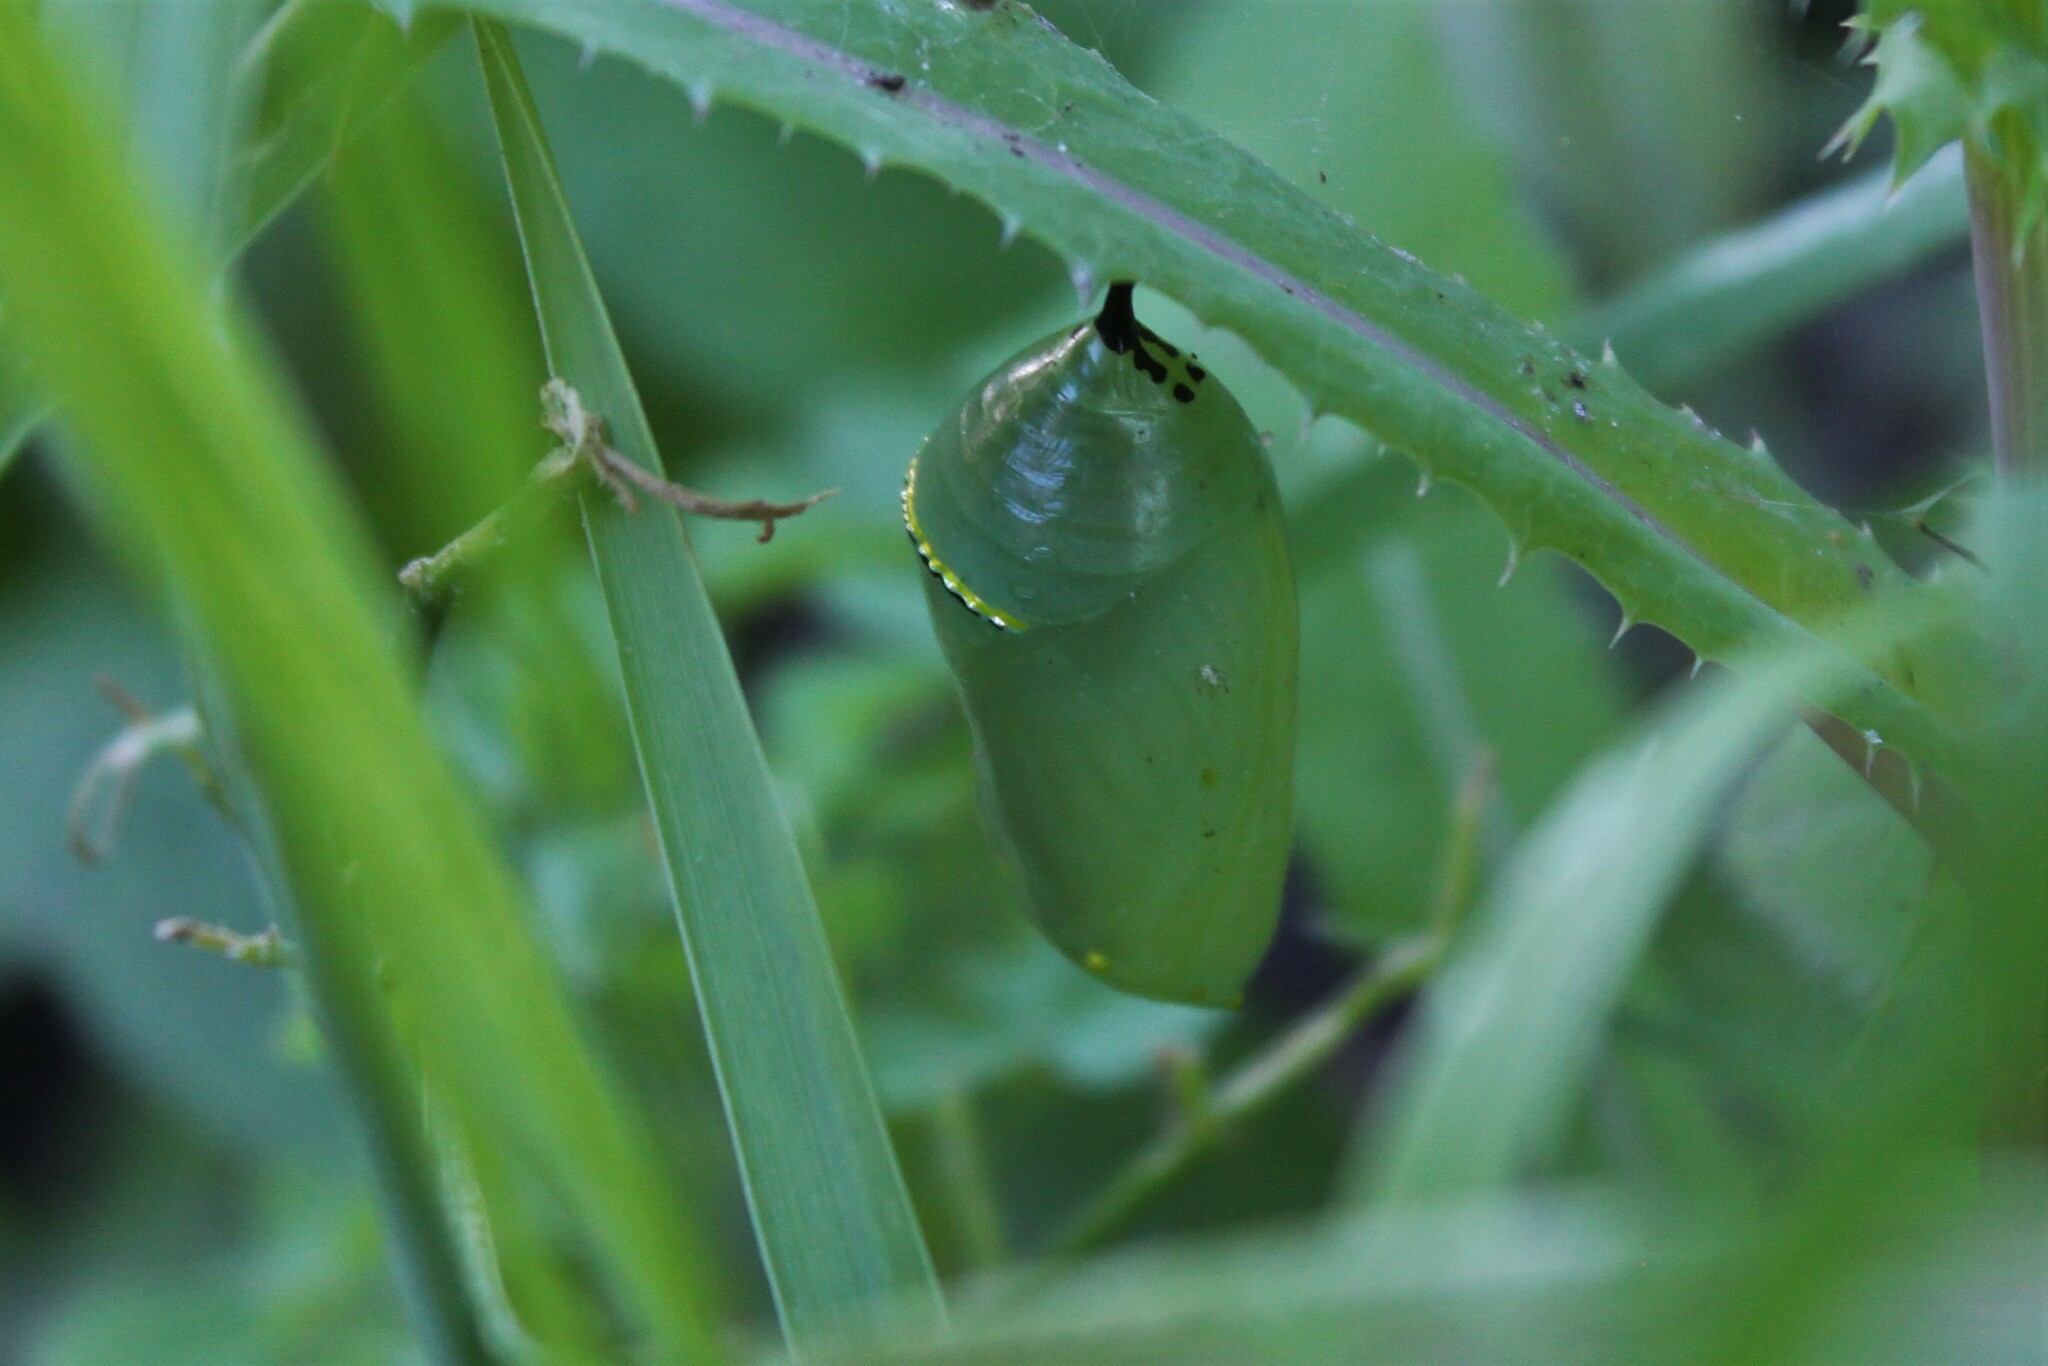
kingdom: Animalia
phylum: Arthropoda
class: Insecta
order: Lepidoptera
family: Nymphalidae
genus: Danaus
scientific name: Danaus plexippus
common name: Monarch
